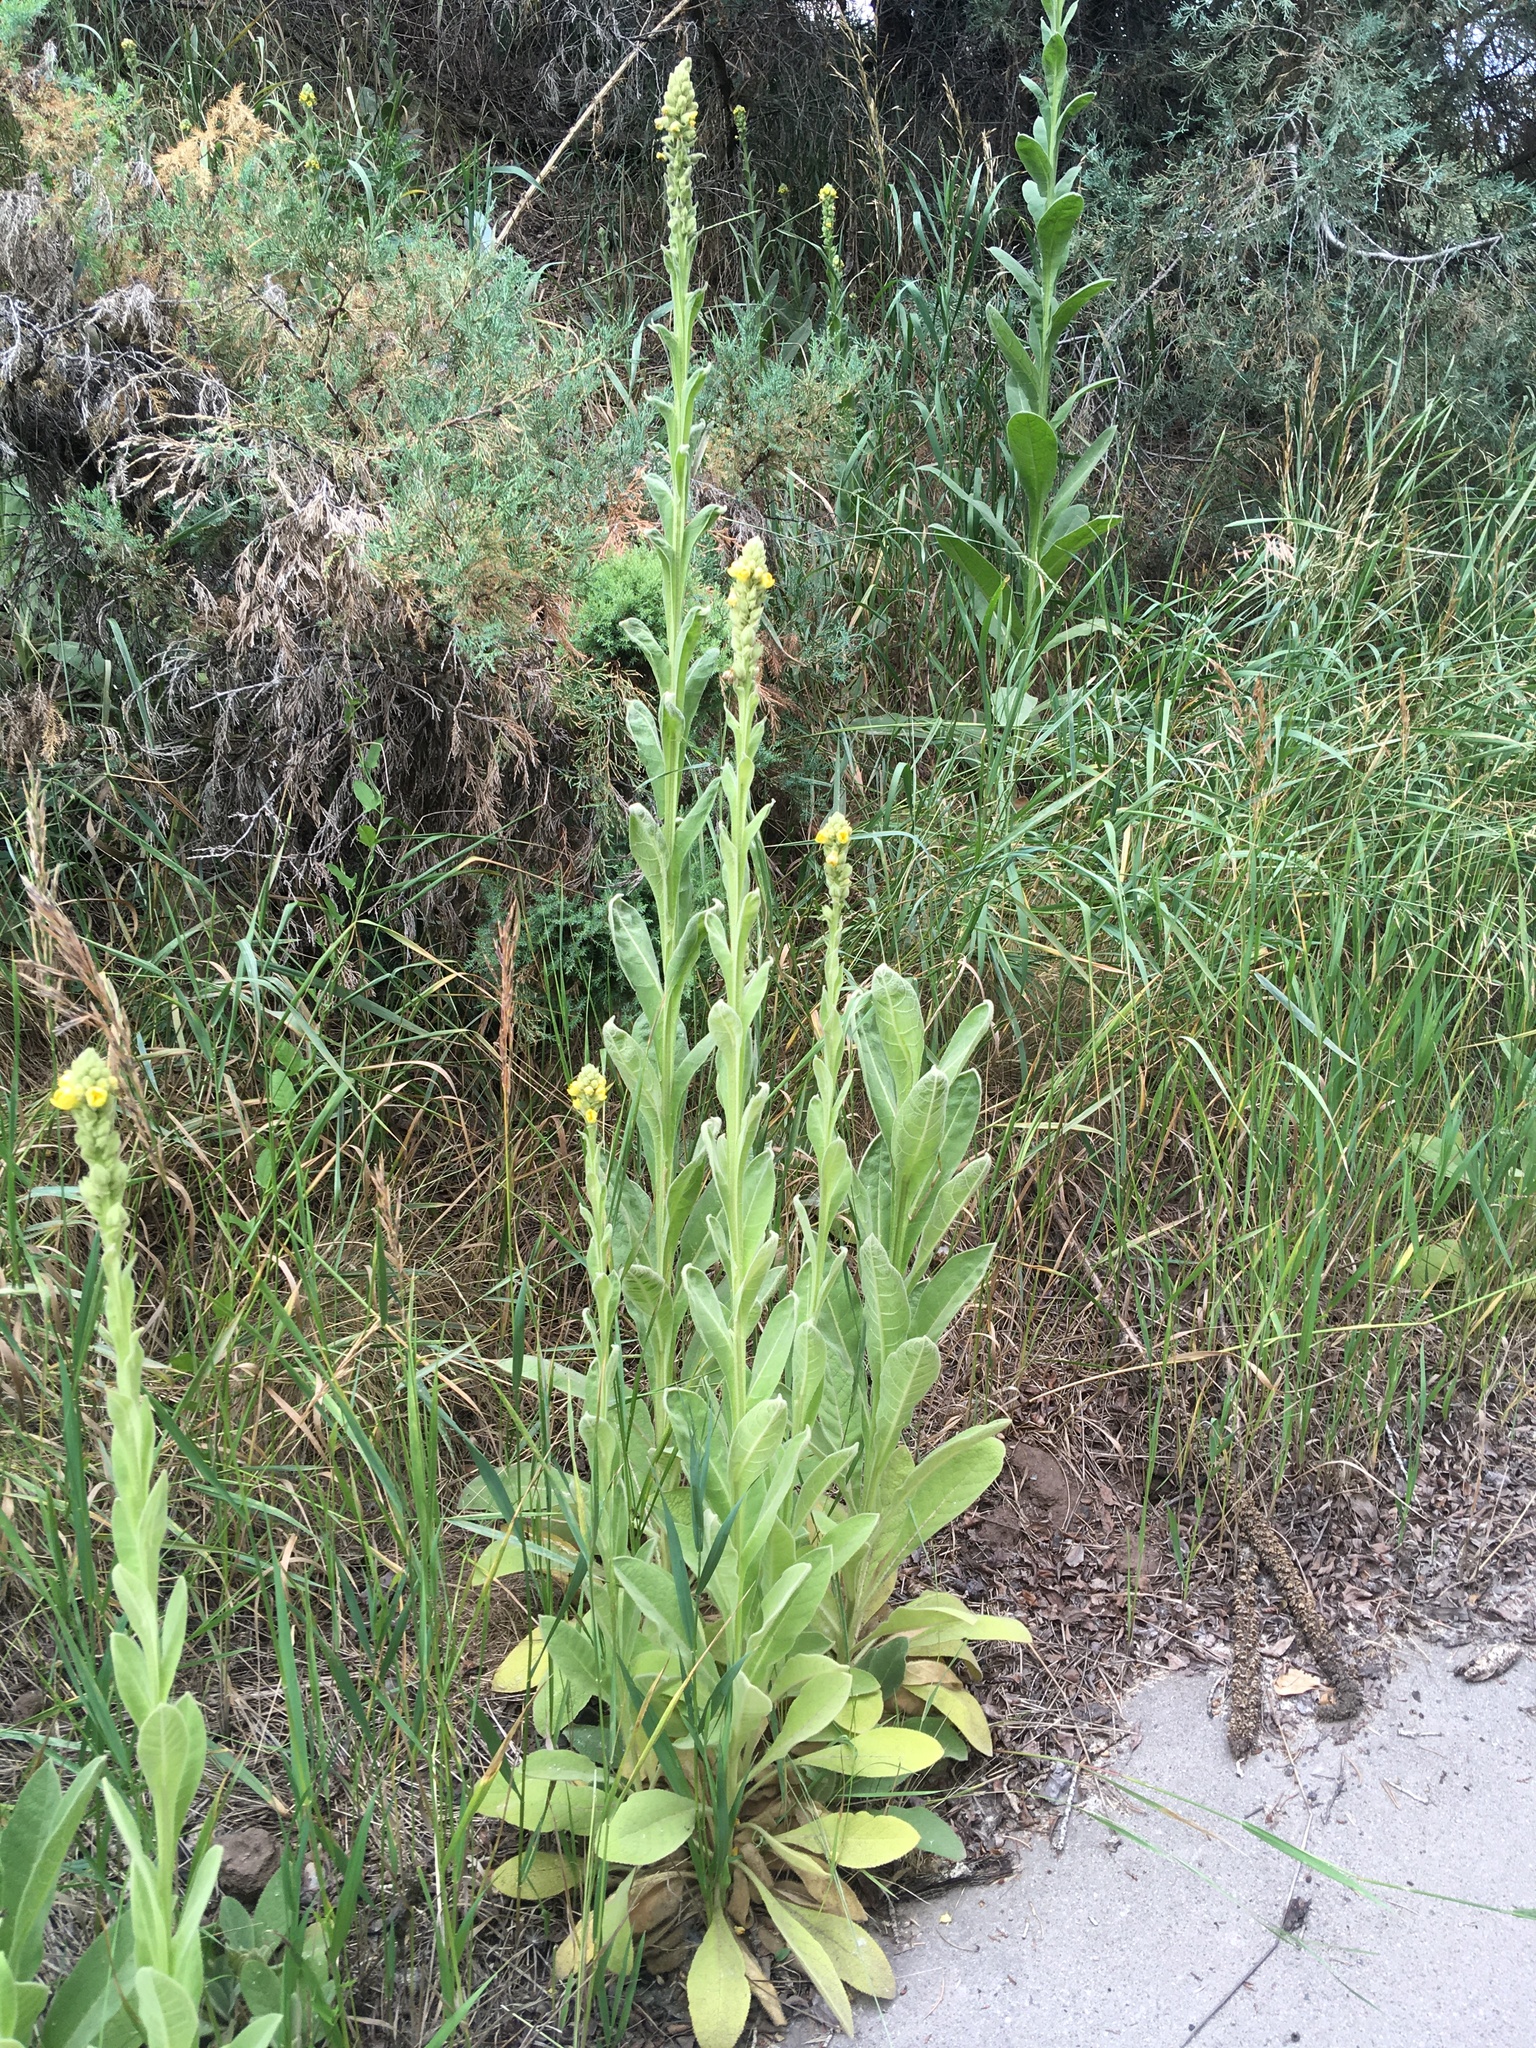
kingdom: Plantae
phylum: Tracheophyta
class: Magnoliopsida
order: Lamiales
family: Scrophulariaceae
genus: Verbascum
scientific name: Verbascum thapsus
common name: Common mullein
